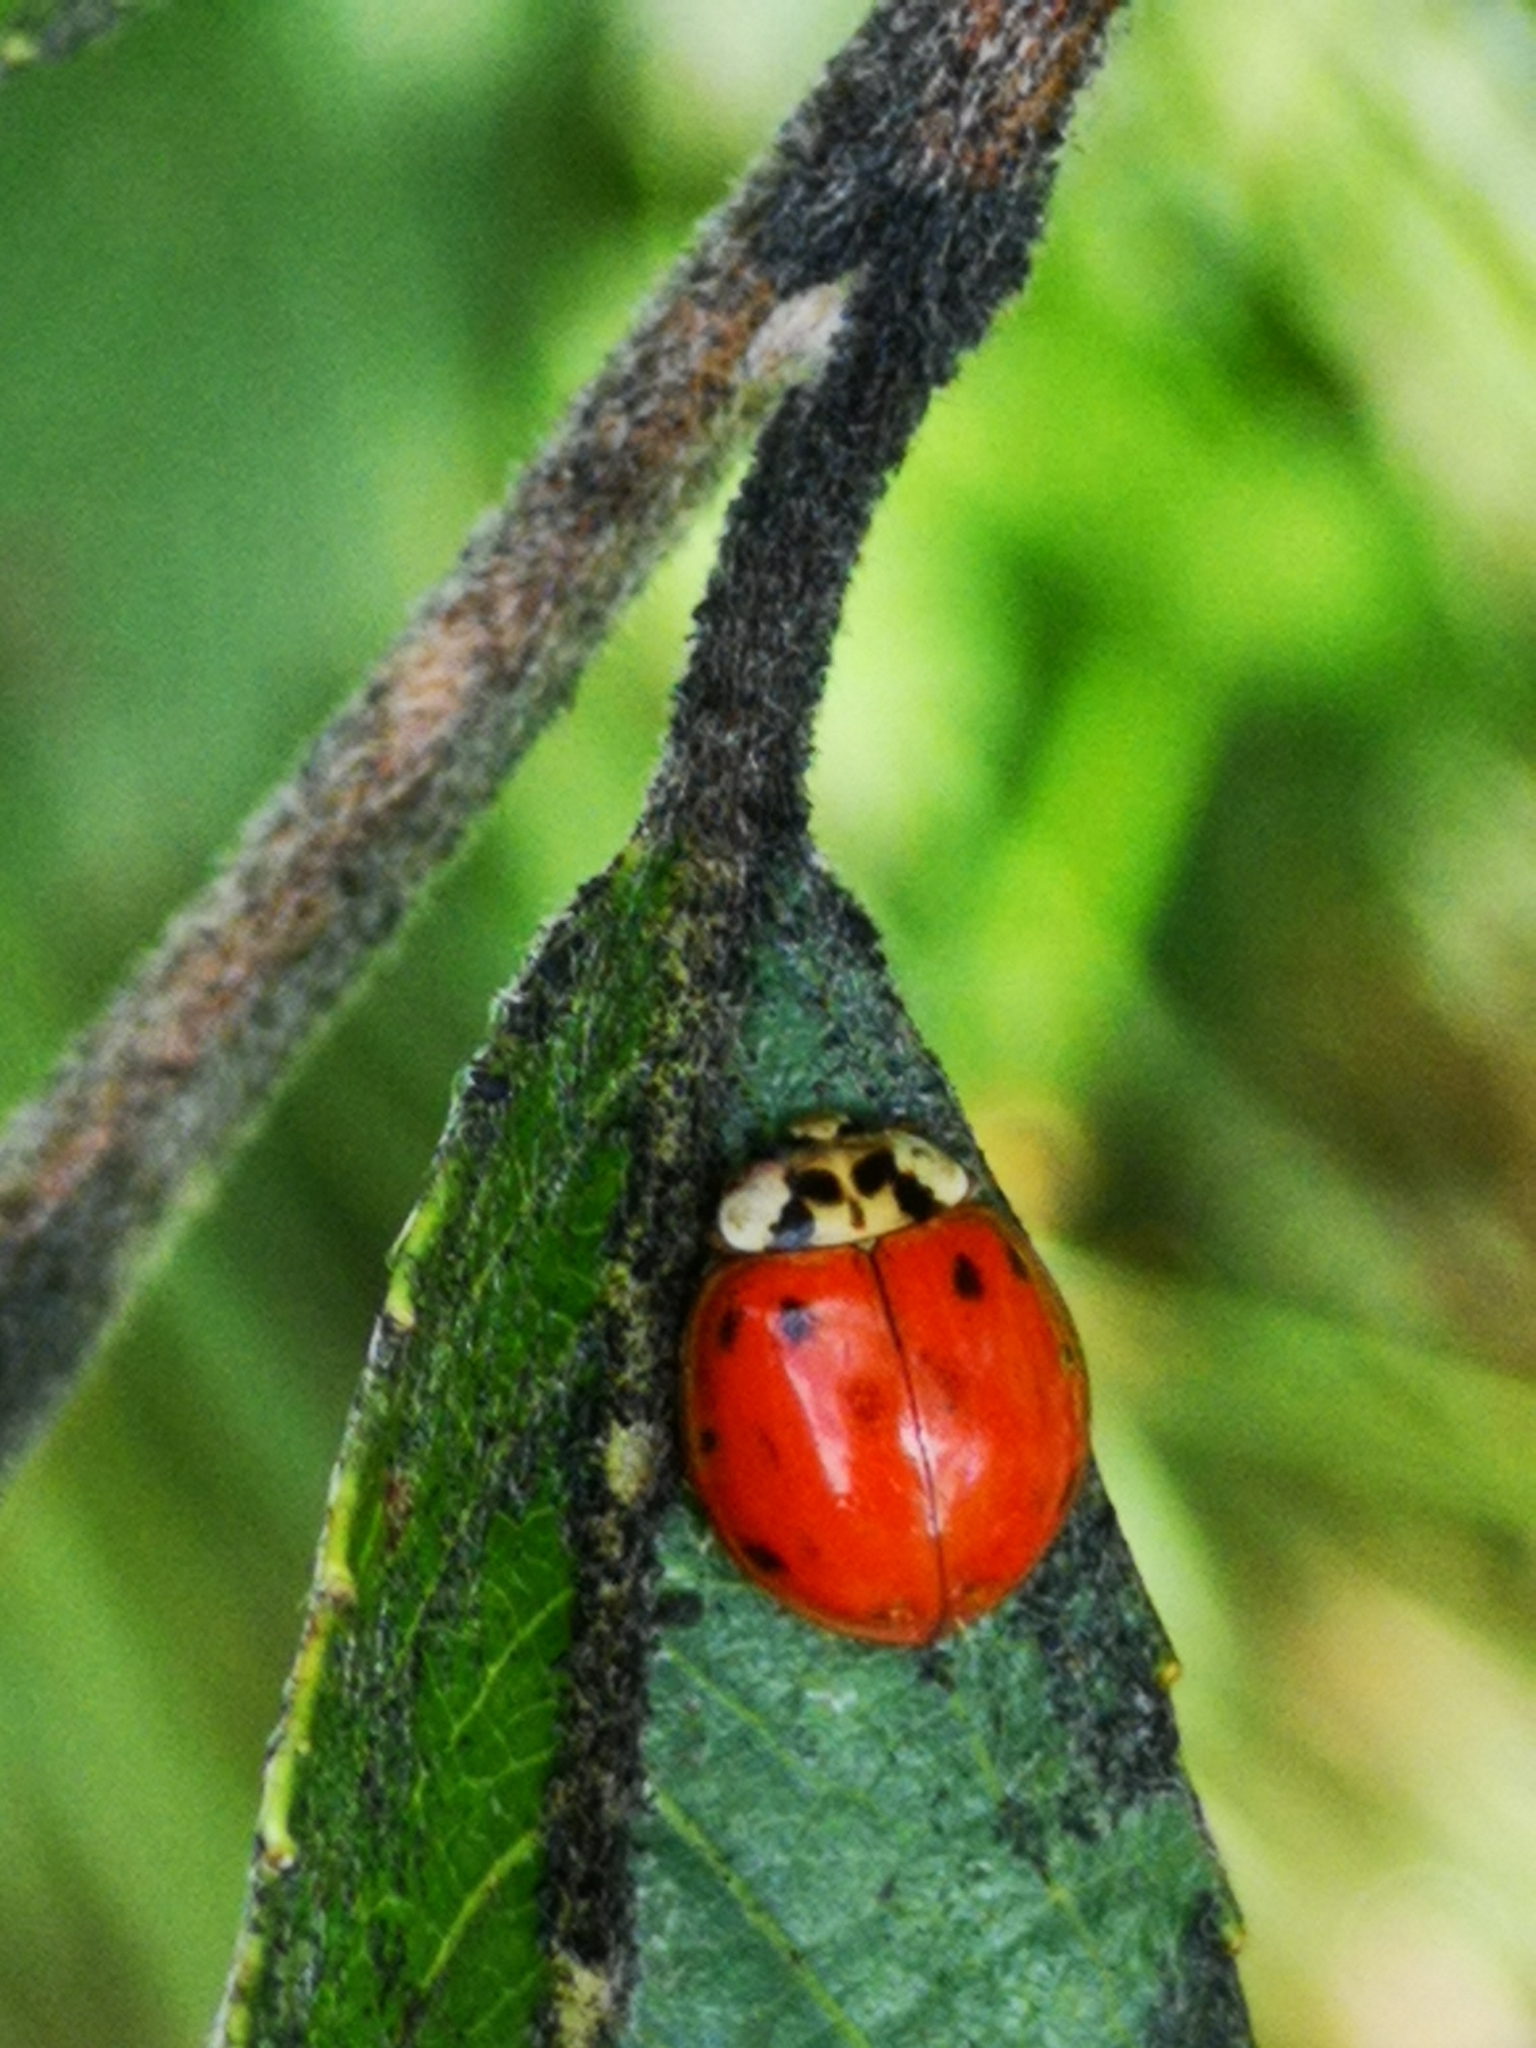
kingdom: Animalia
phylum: Arthropoda
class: Insecta
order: Coleoptera
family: Coccinellidae
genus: Harmonia
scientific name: Harmonia axyridis
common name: Harlequin ladybird
